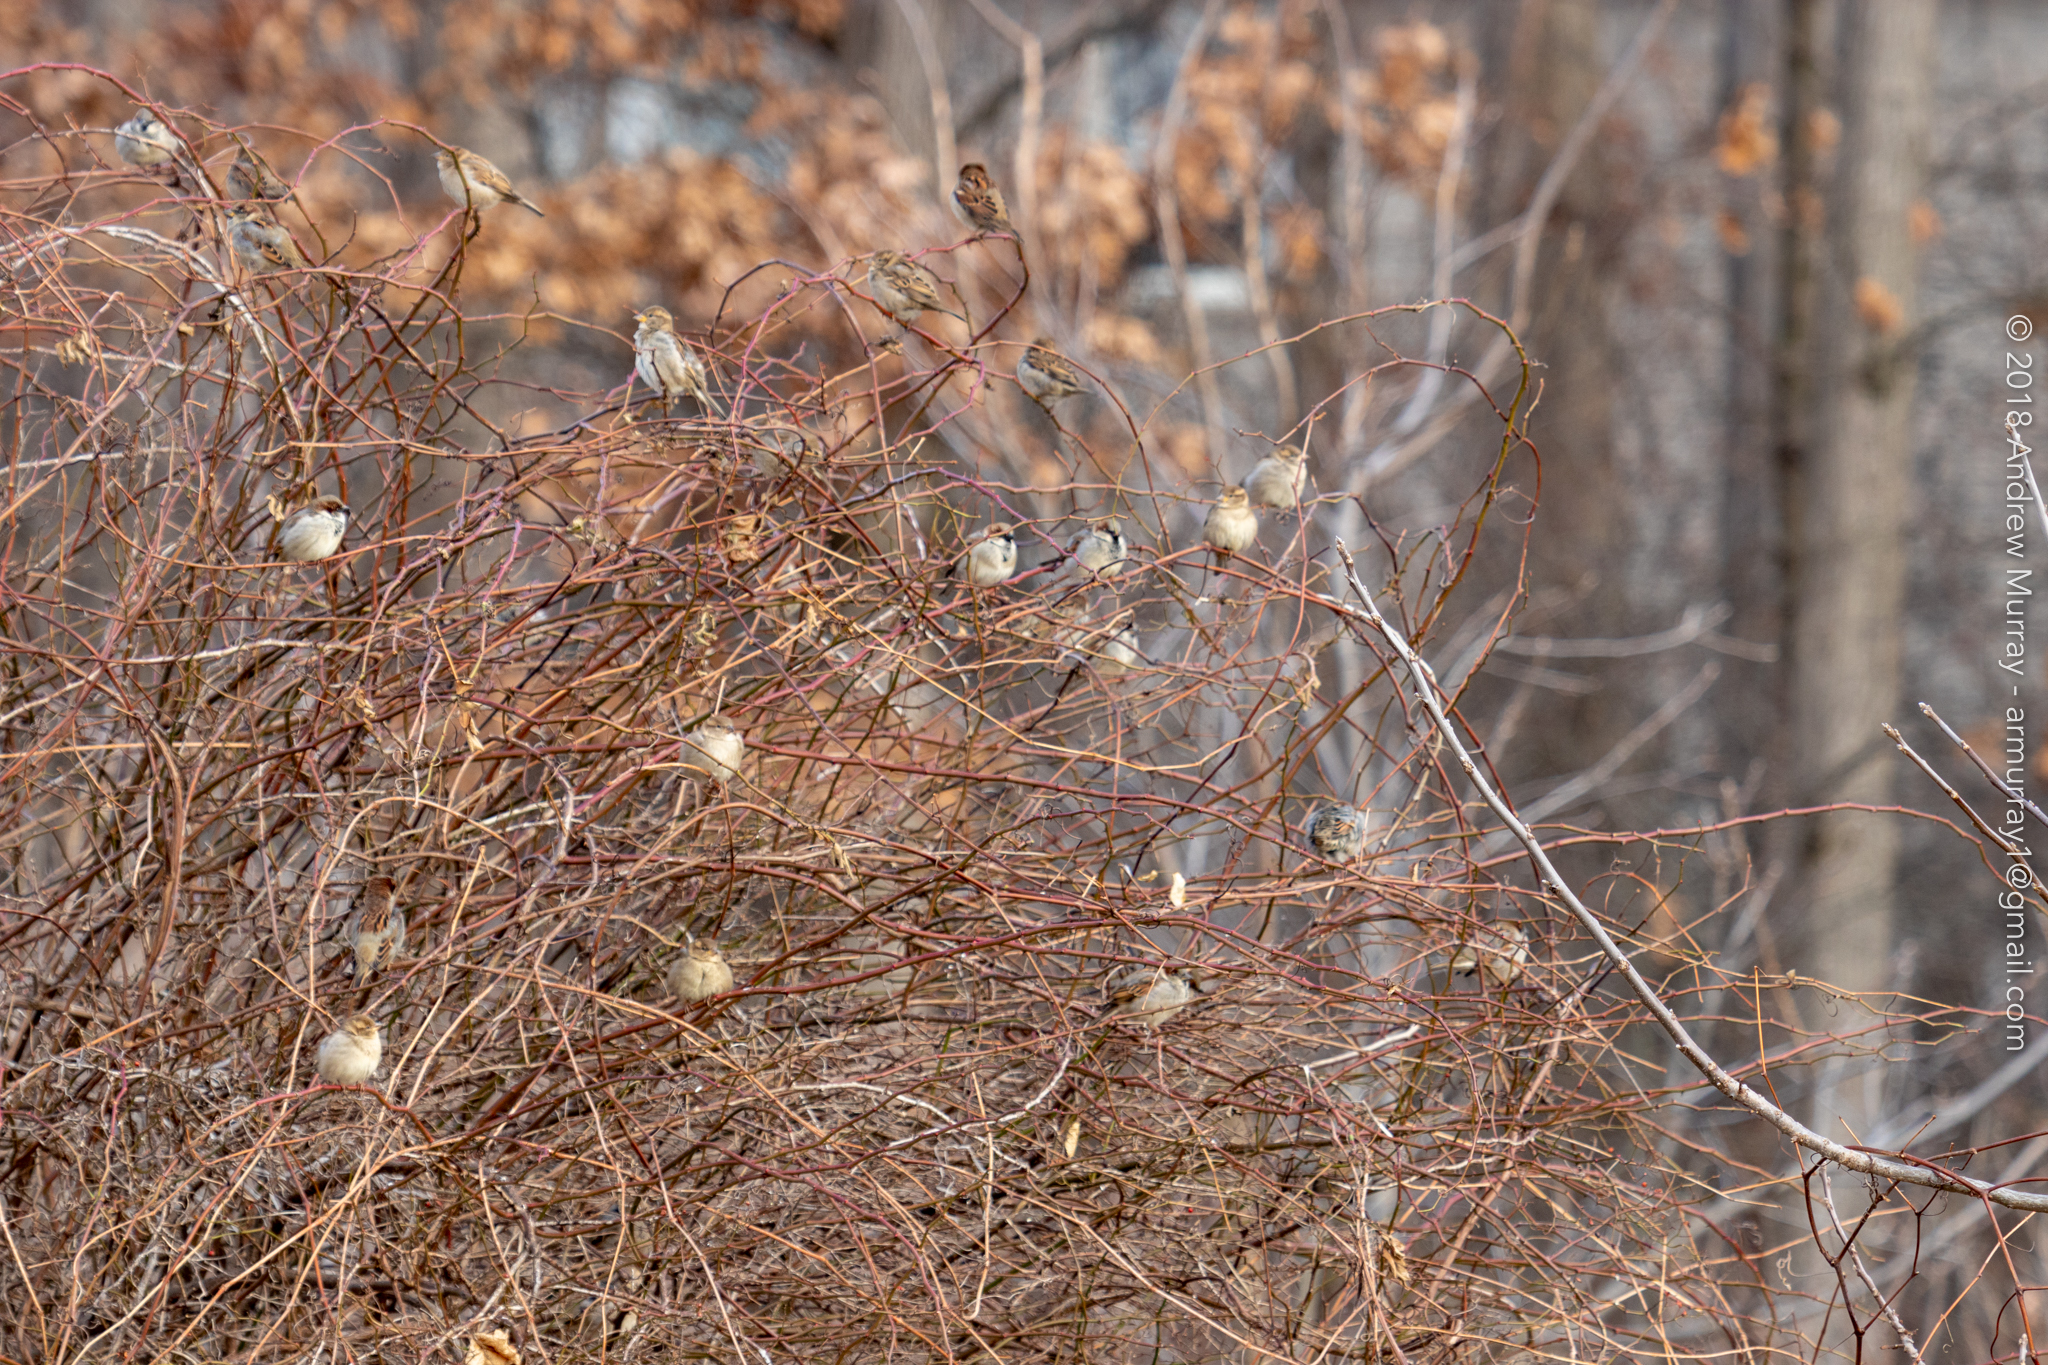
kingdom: Animalia
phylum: Chordata
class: Aves
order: Passeriformes
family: Passeridae
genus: Passer
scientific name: Passer domesticus
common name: House sparrow
